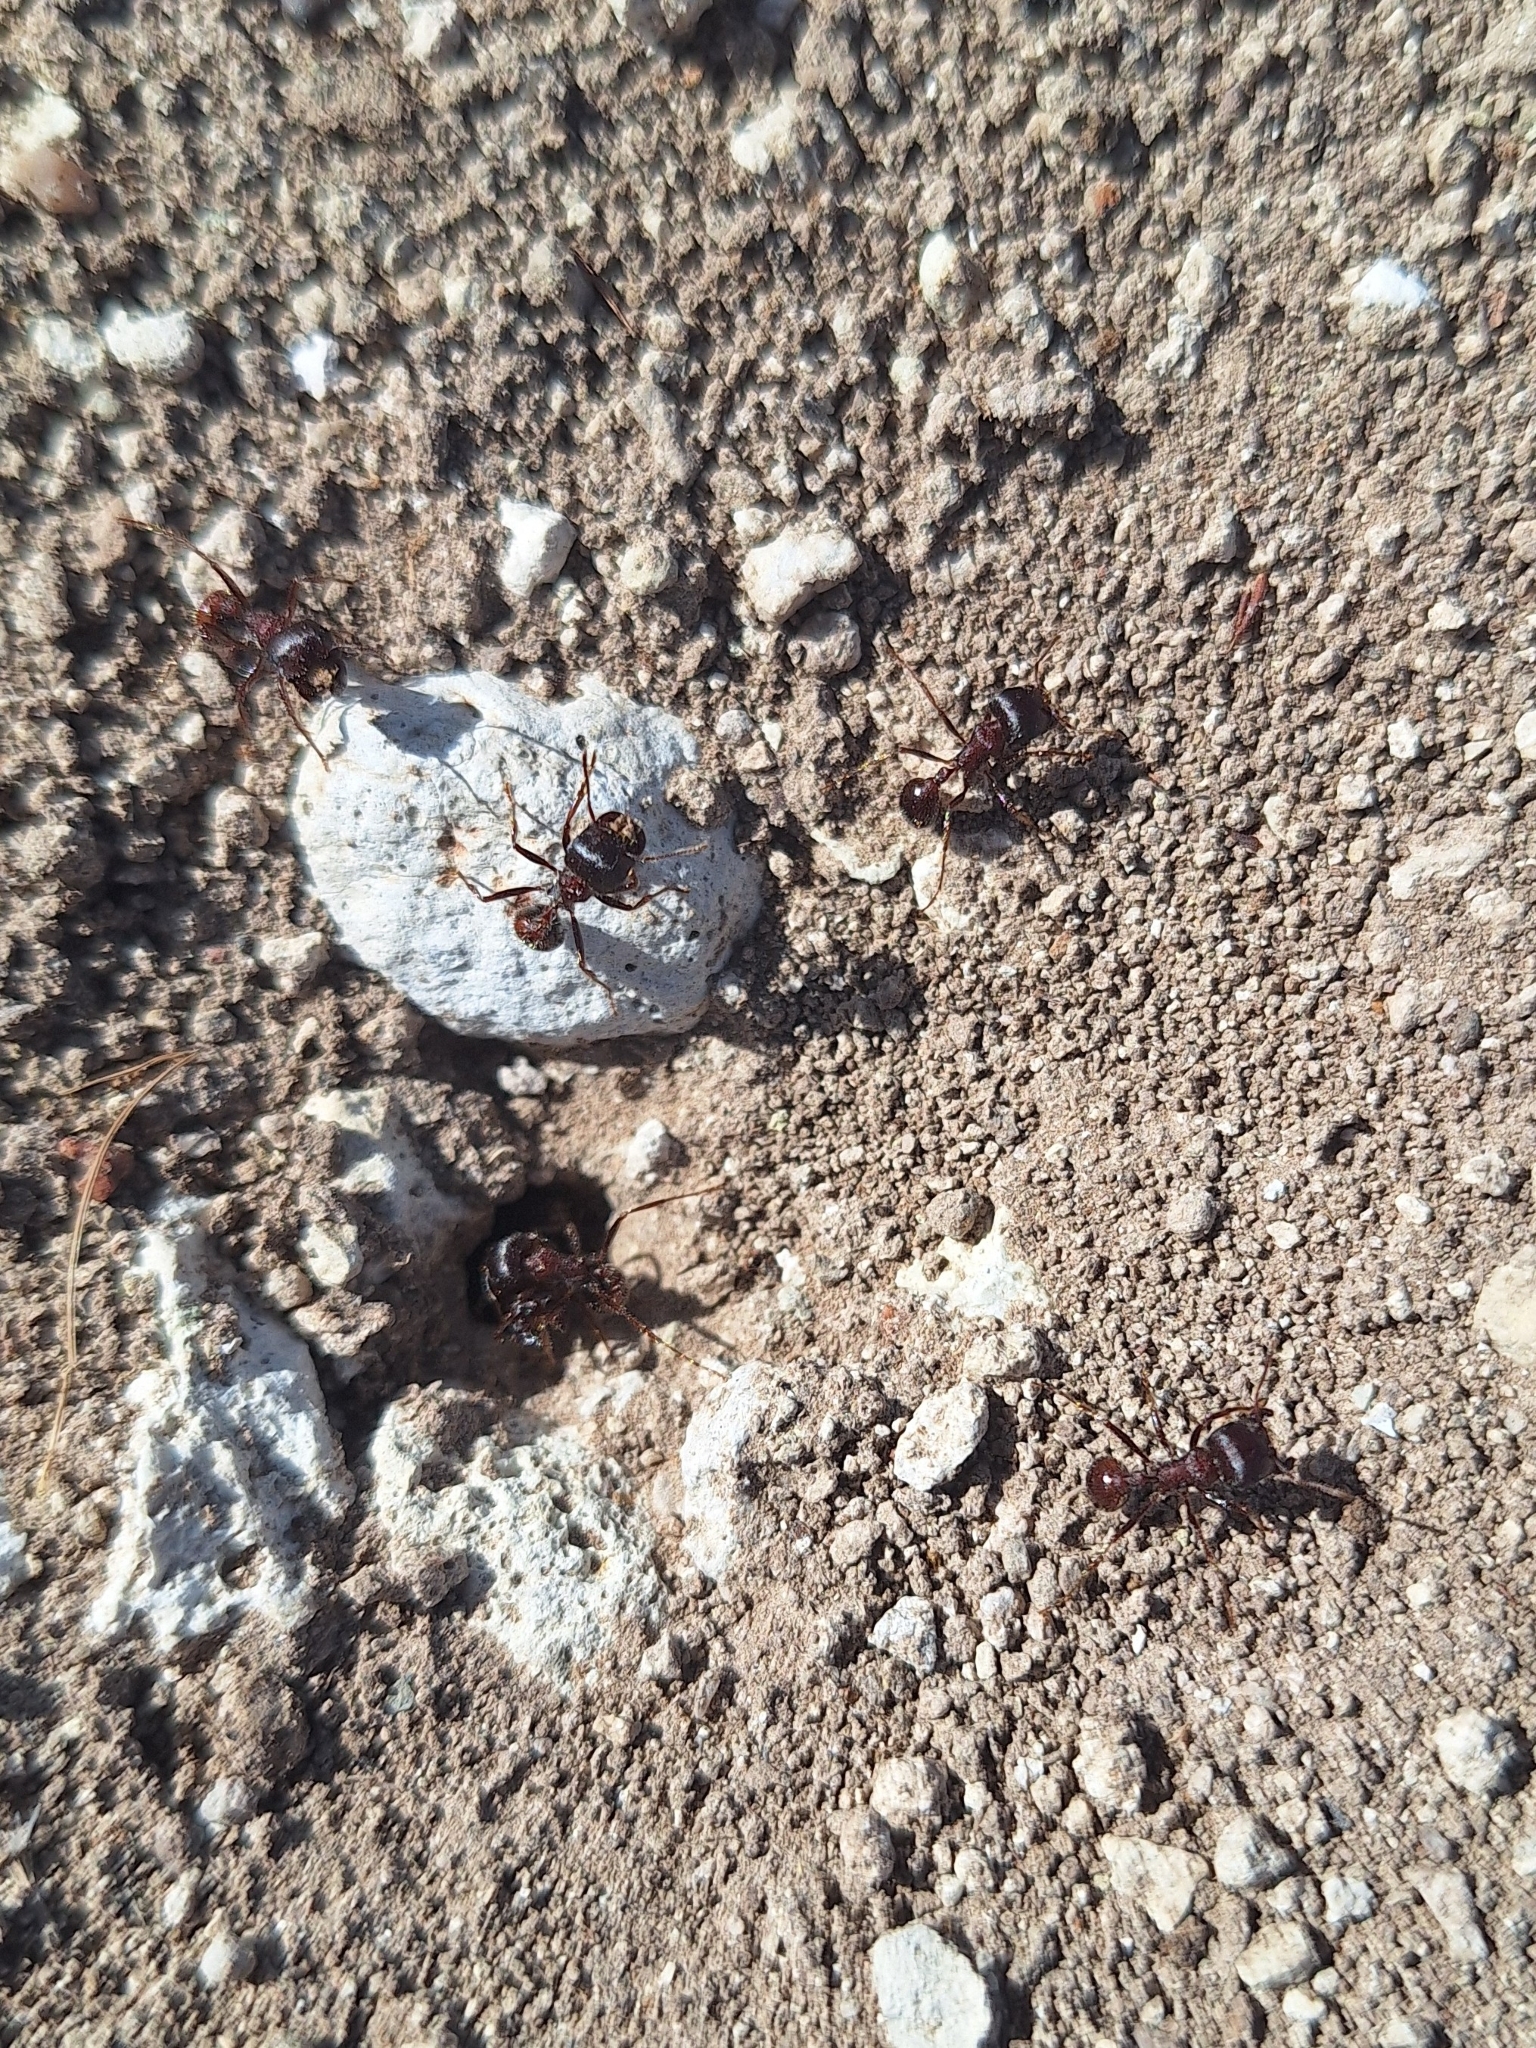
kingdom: Animalia
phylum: Arthropoda
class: Insecta
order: Hymenoptera
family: Formicidae
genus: Pogonomyrmex
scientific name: Pogonomyrmex rugosus
